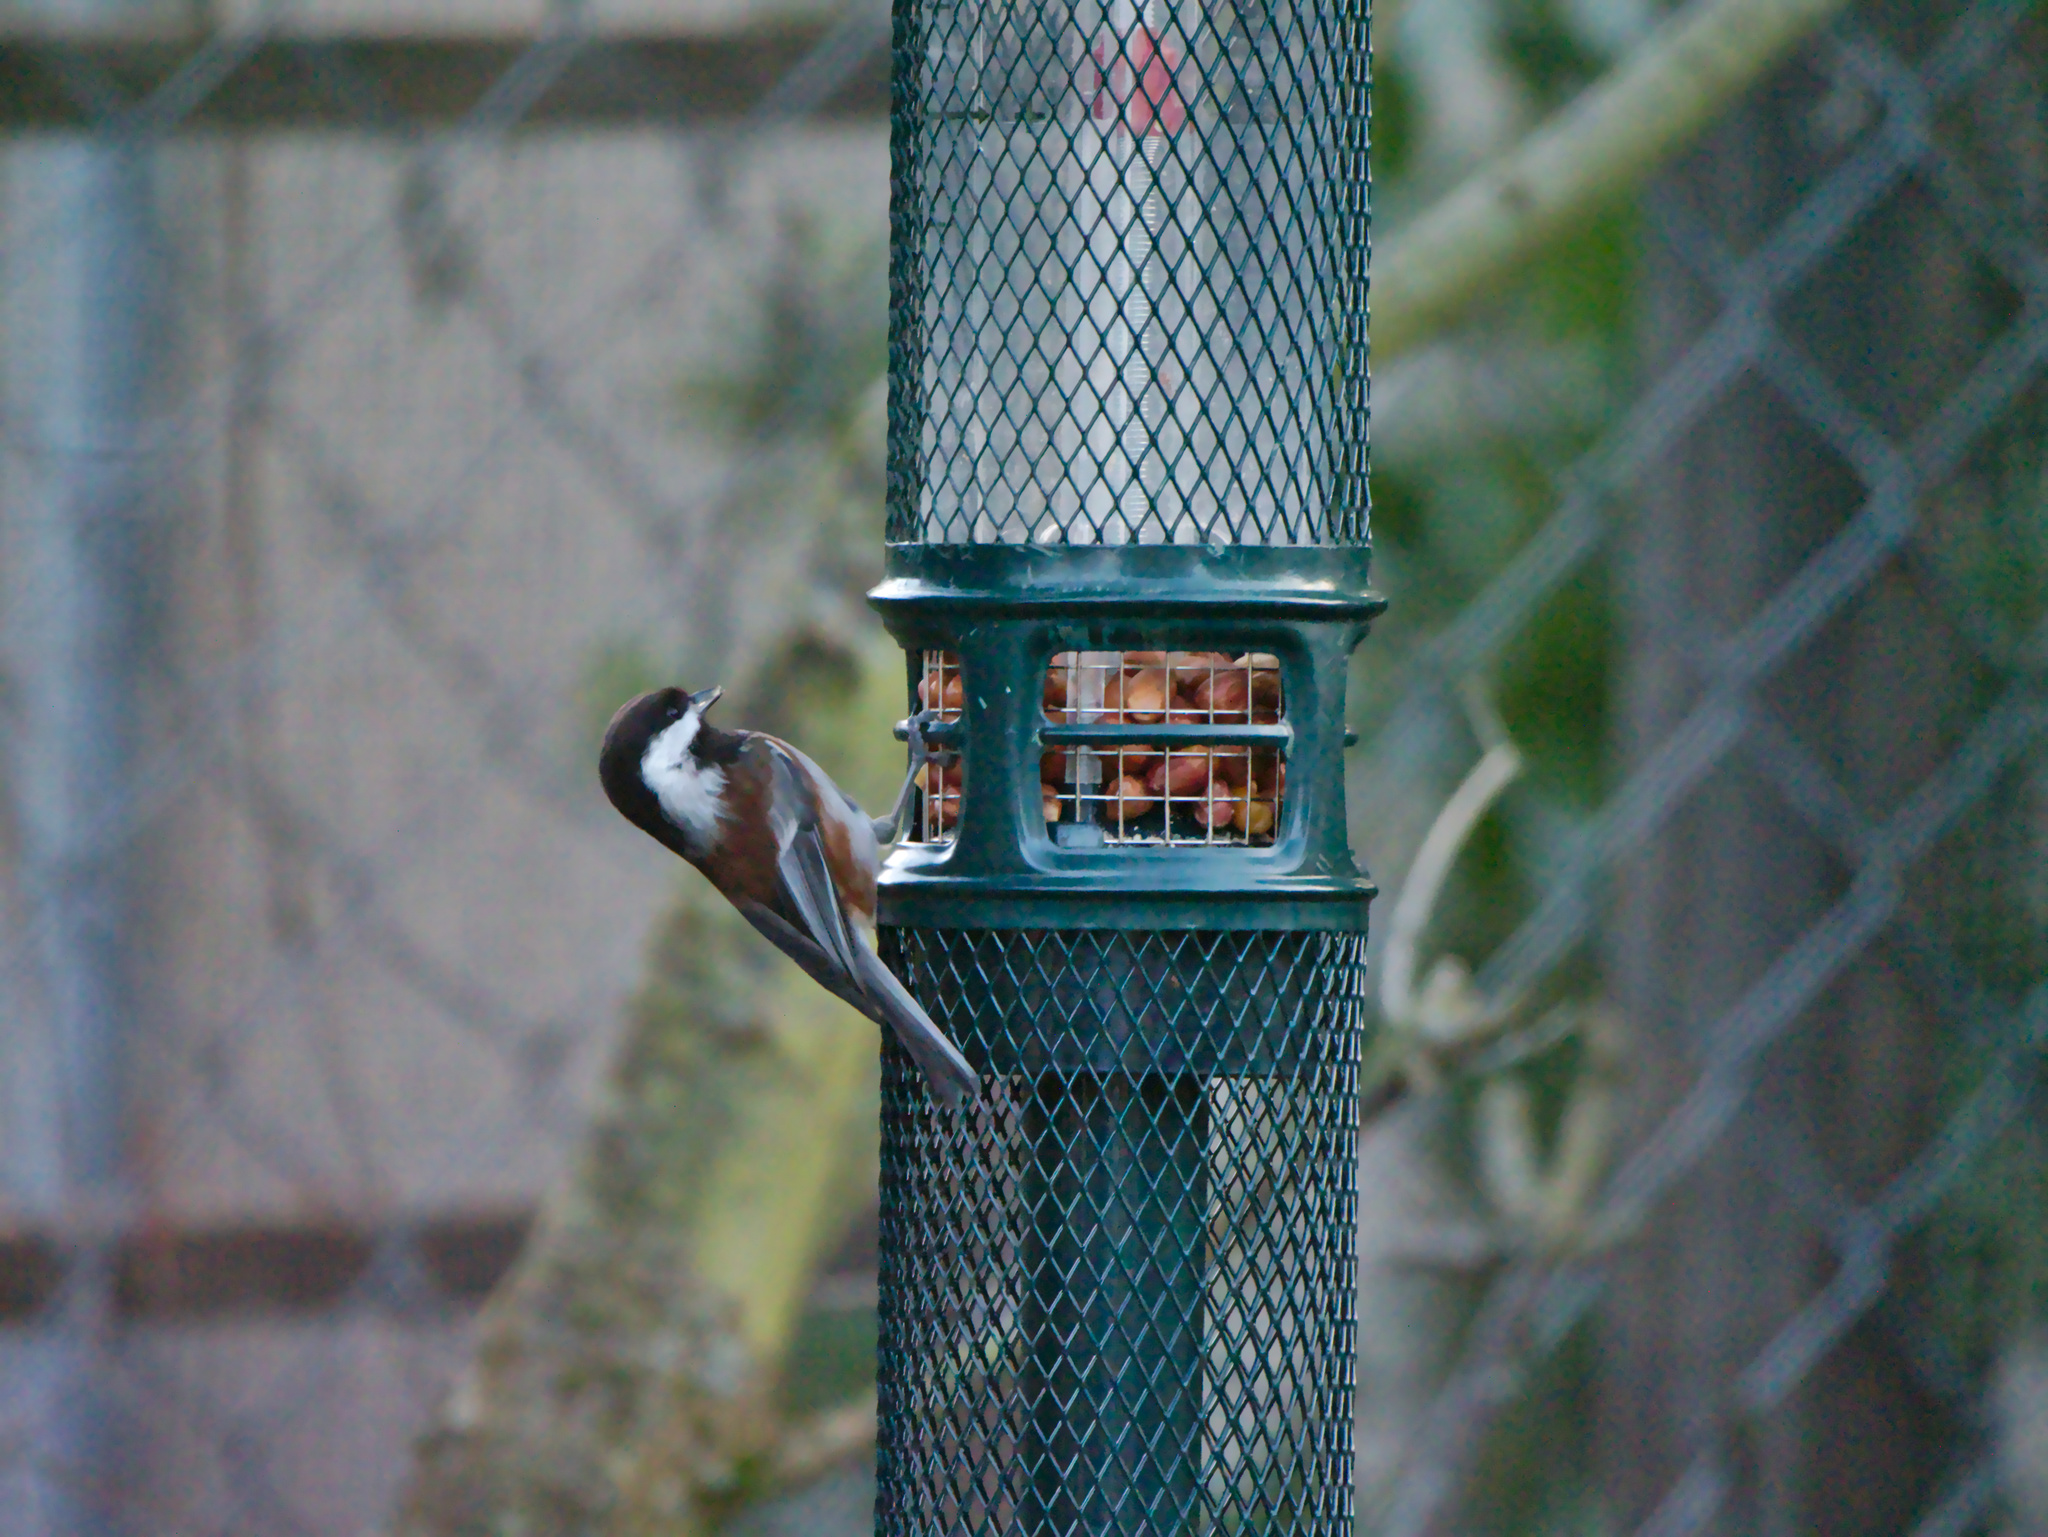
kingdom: Animalia
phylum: Chordata
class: Aves
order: Passeriformes
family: Paridae
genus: Poecile
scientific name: Poecile rufescens
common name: Chestnut-backed chickadee
